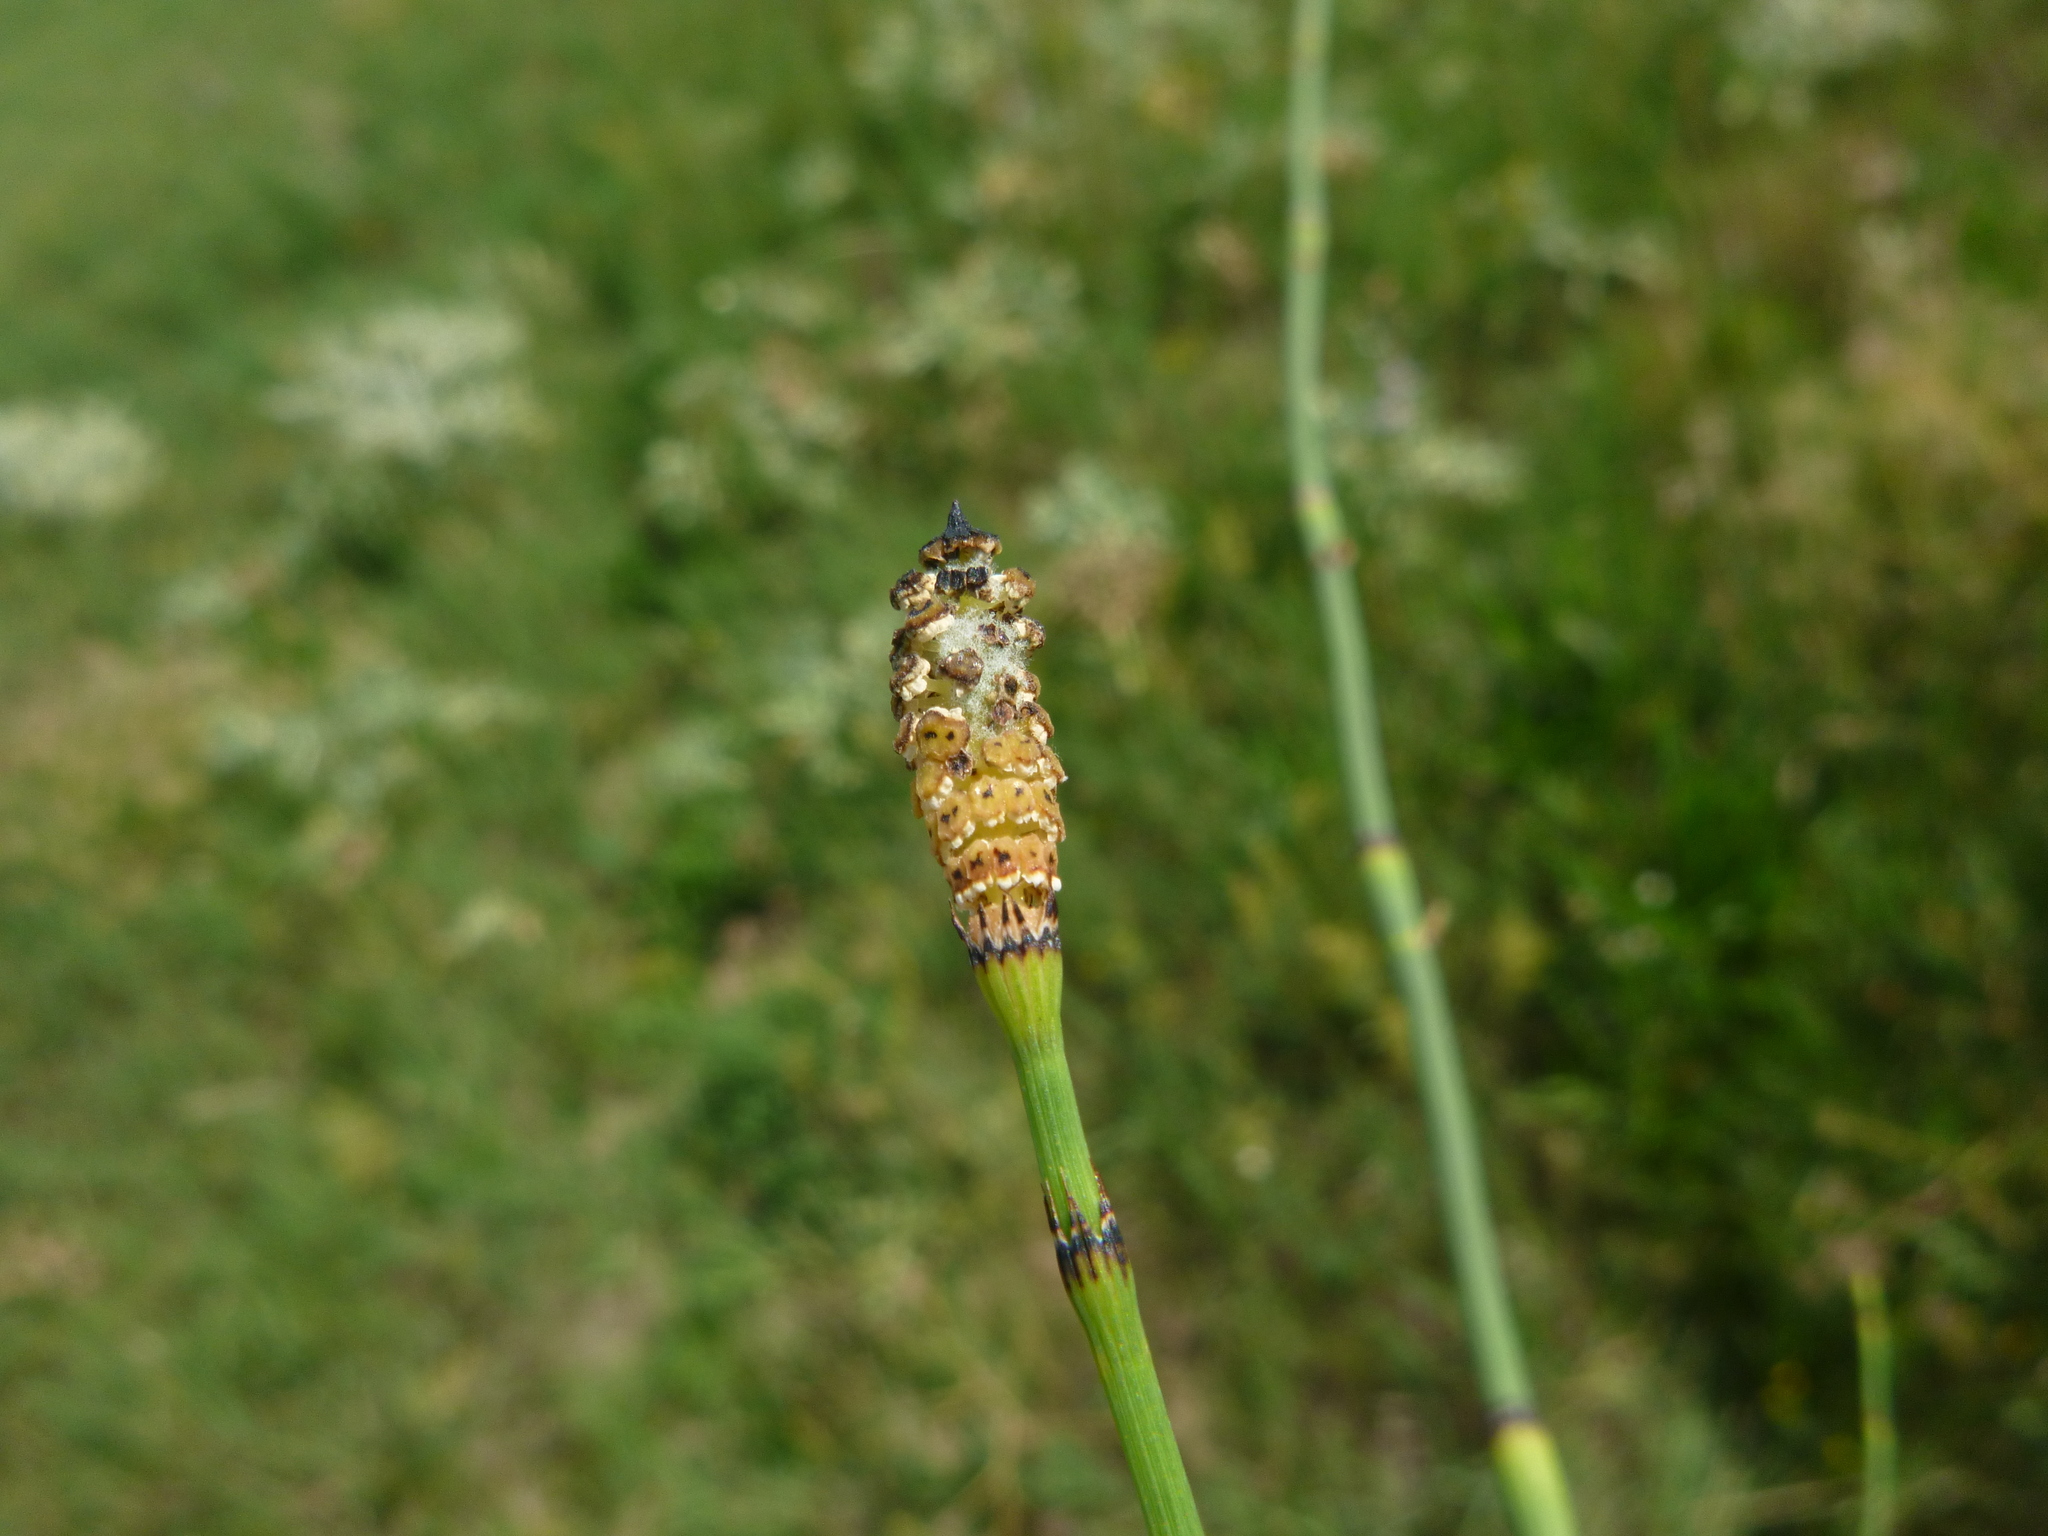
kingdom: Plantae
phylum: Tracheophyta
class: Polypodiopsida
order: Equisetales
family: Equisetaceae
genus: Equisetum
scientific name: Equisetum ramosissimum
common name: Branched horsetail
